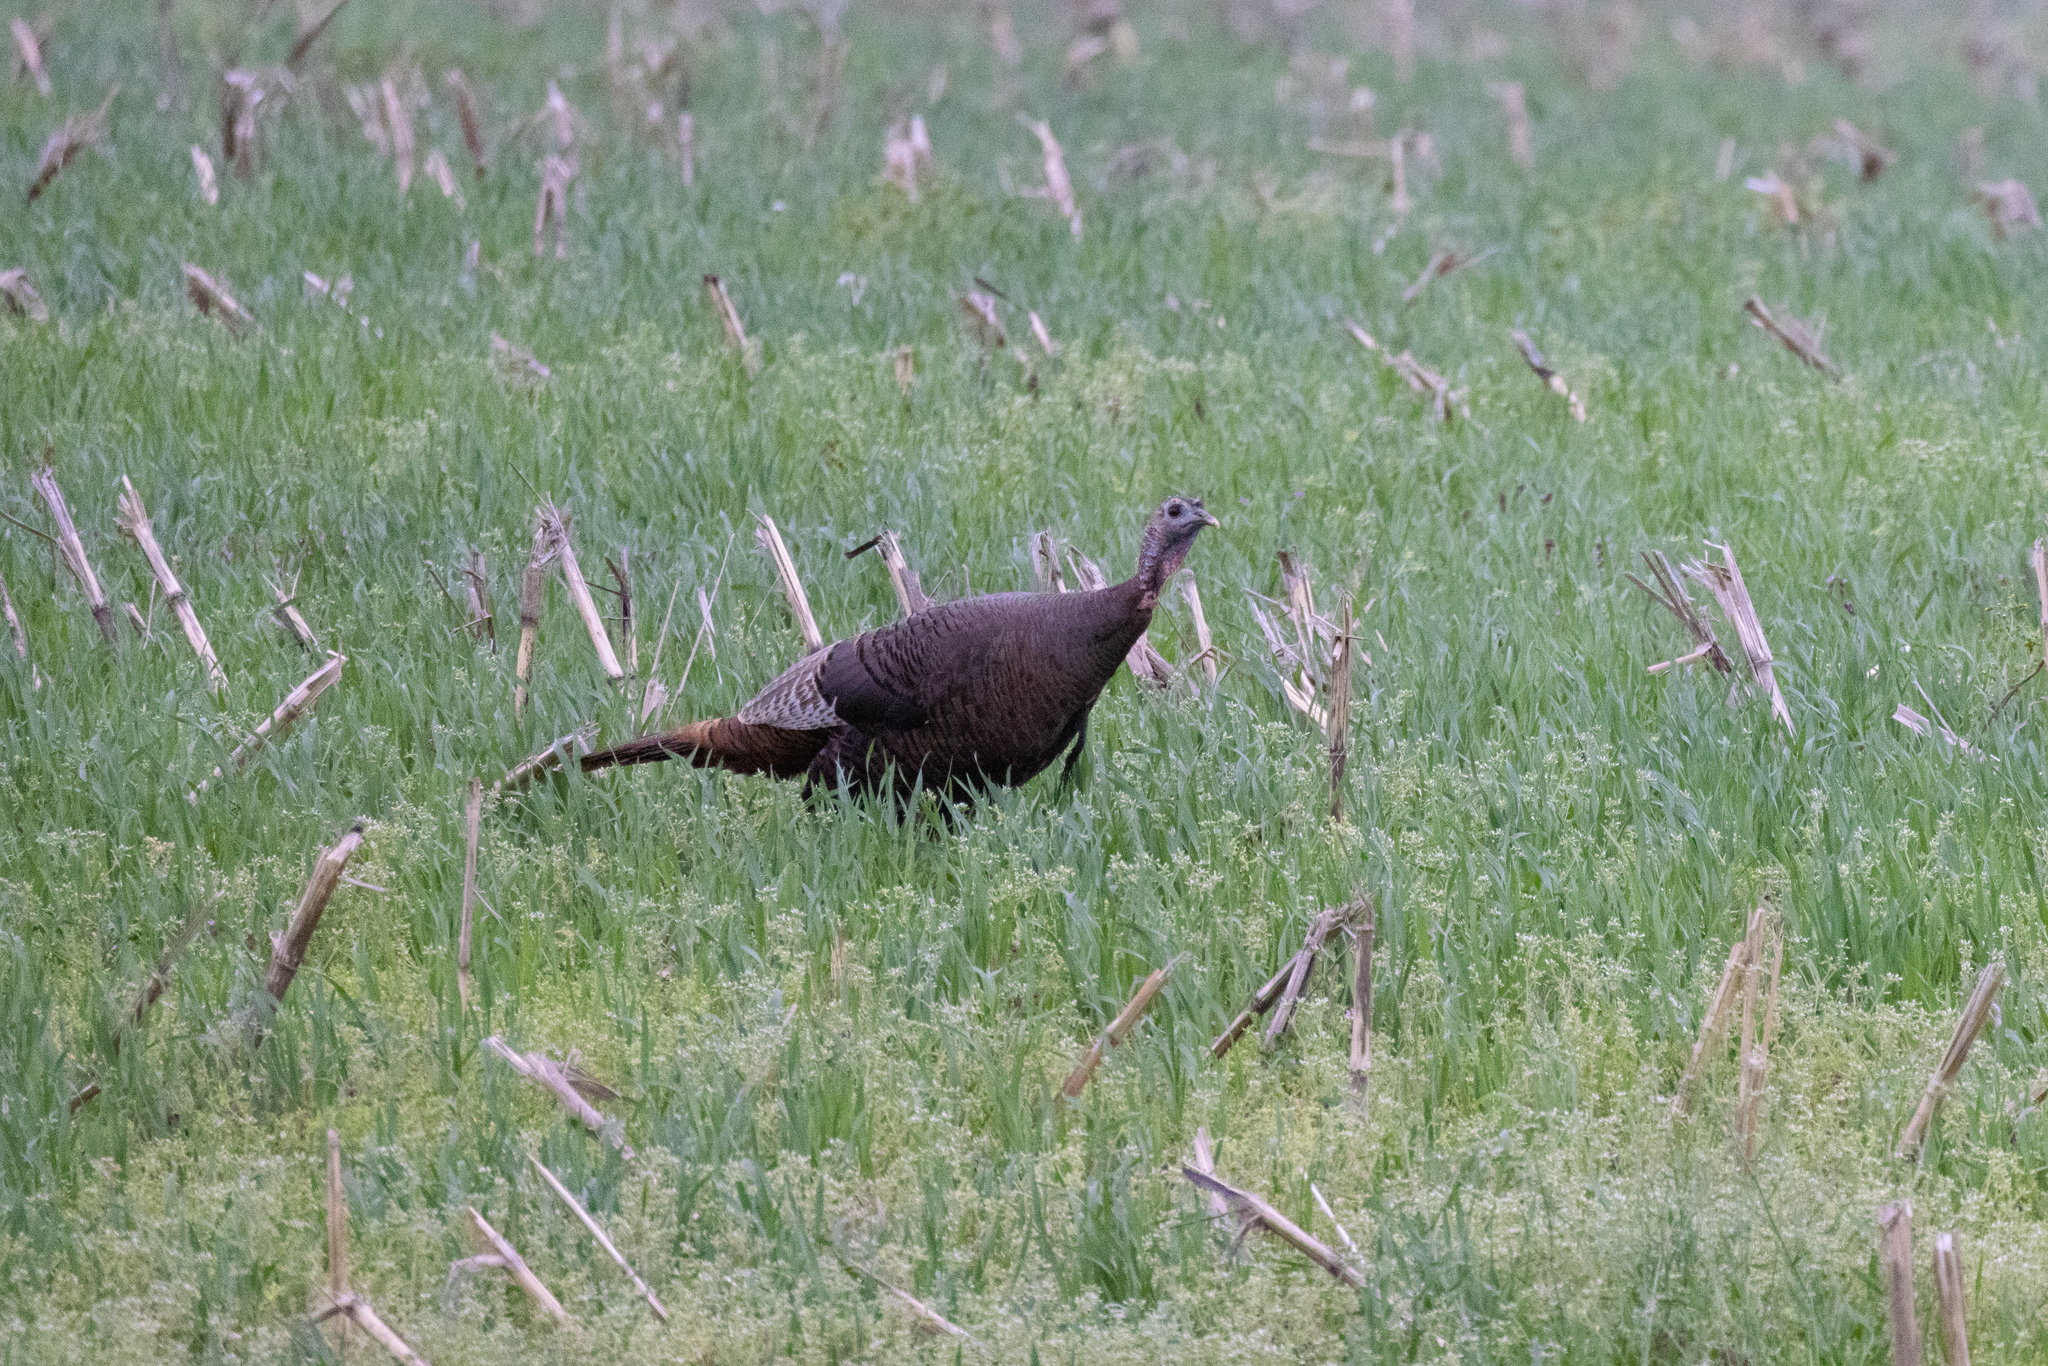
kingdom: Animalia
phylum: Chordata
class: Aves
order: Galliformes
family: Phasianidae
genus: Meleagris
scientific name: Meleagris gallopavo
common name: Wild turkey
